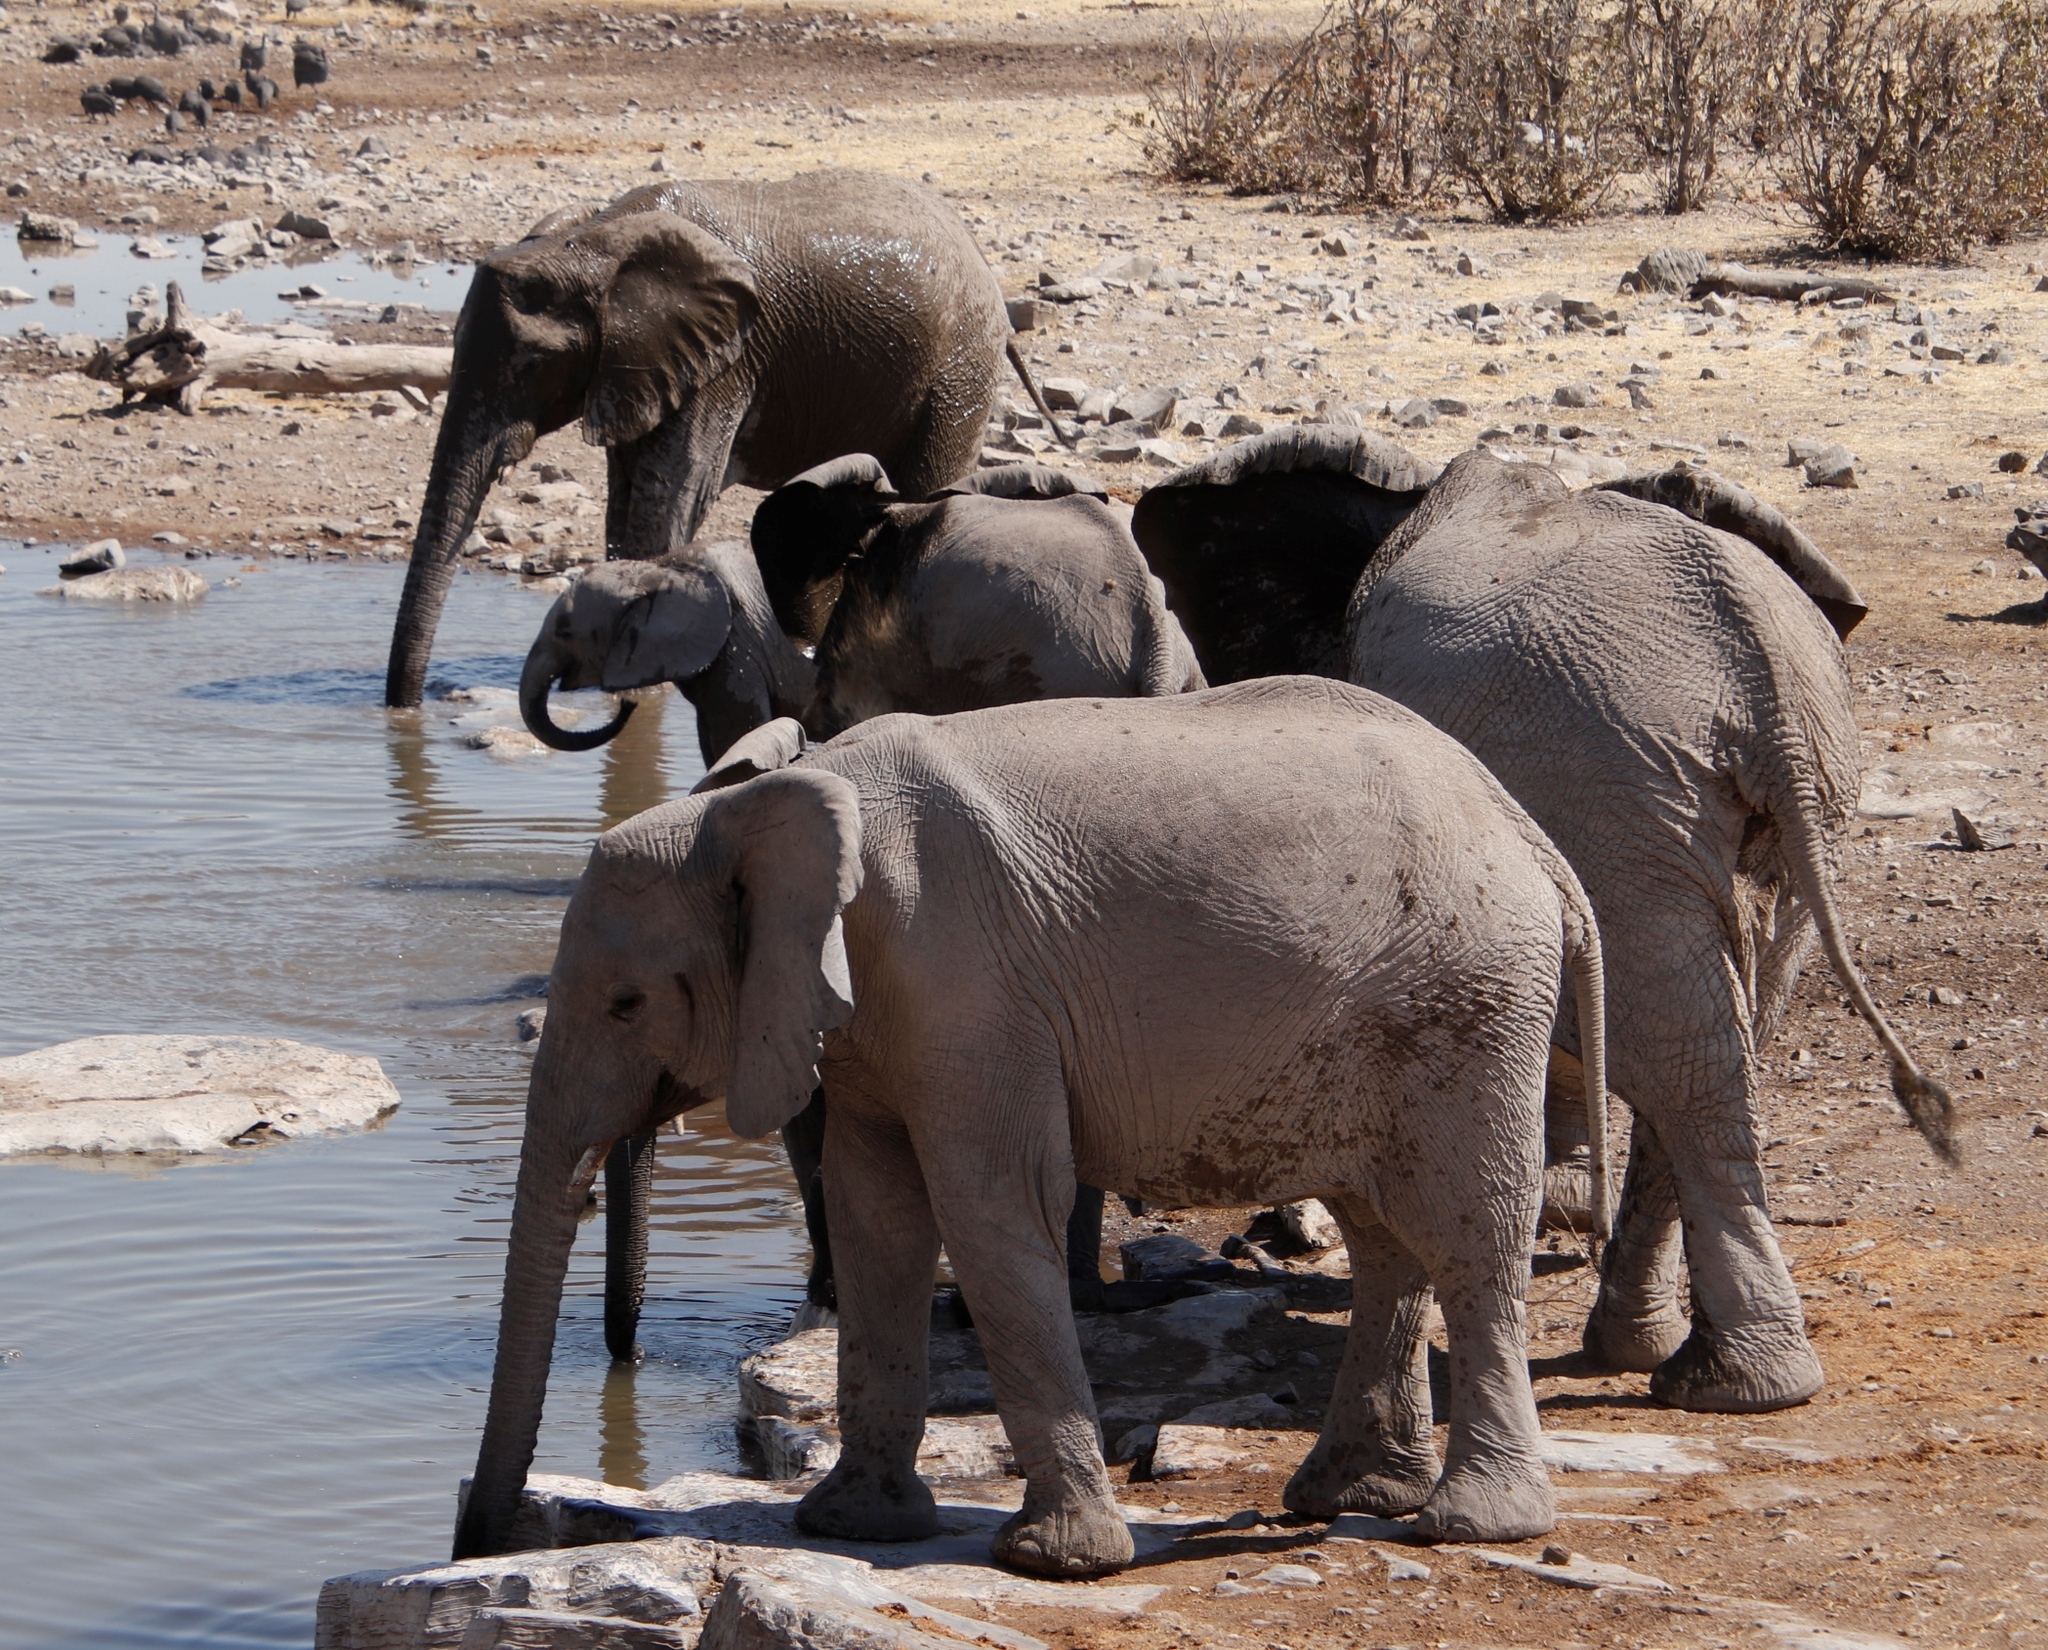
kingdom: Animalia
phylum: Chordata
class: Mammalia
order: Proboscidea
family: Elephantidae
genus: Loxodonta
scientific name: Loxodonta africana
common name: African elephant
